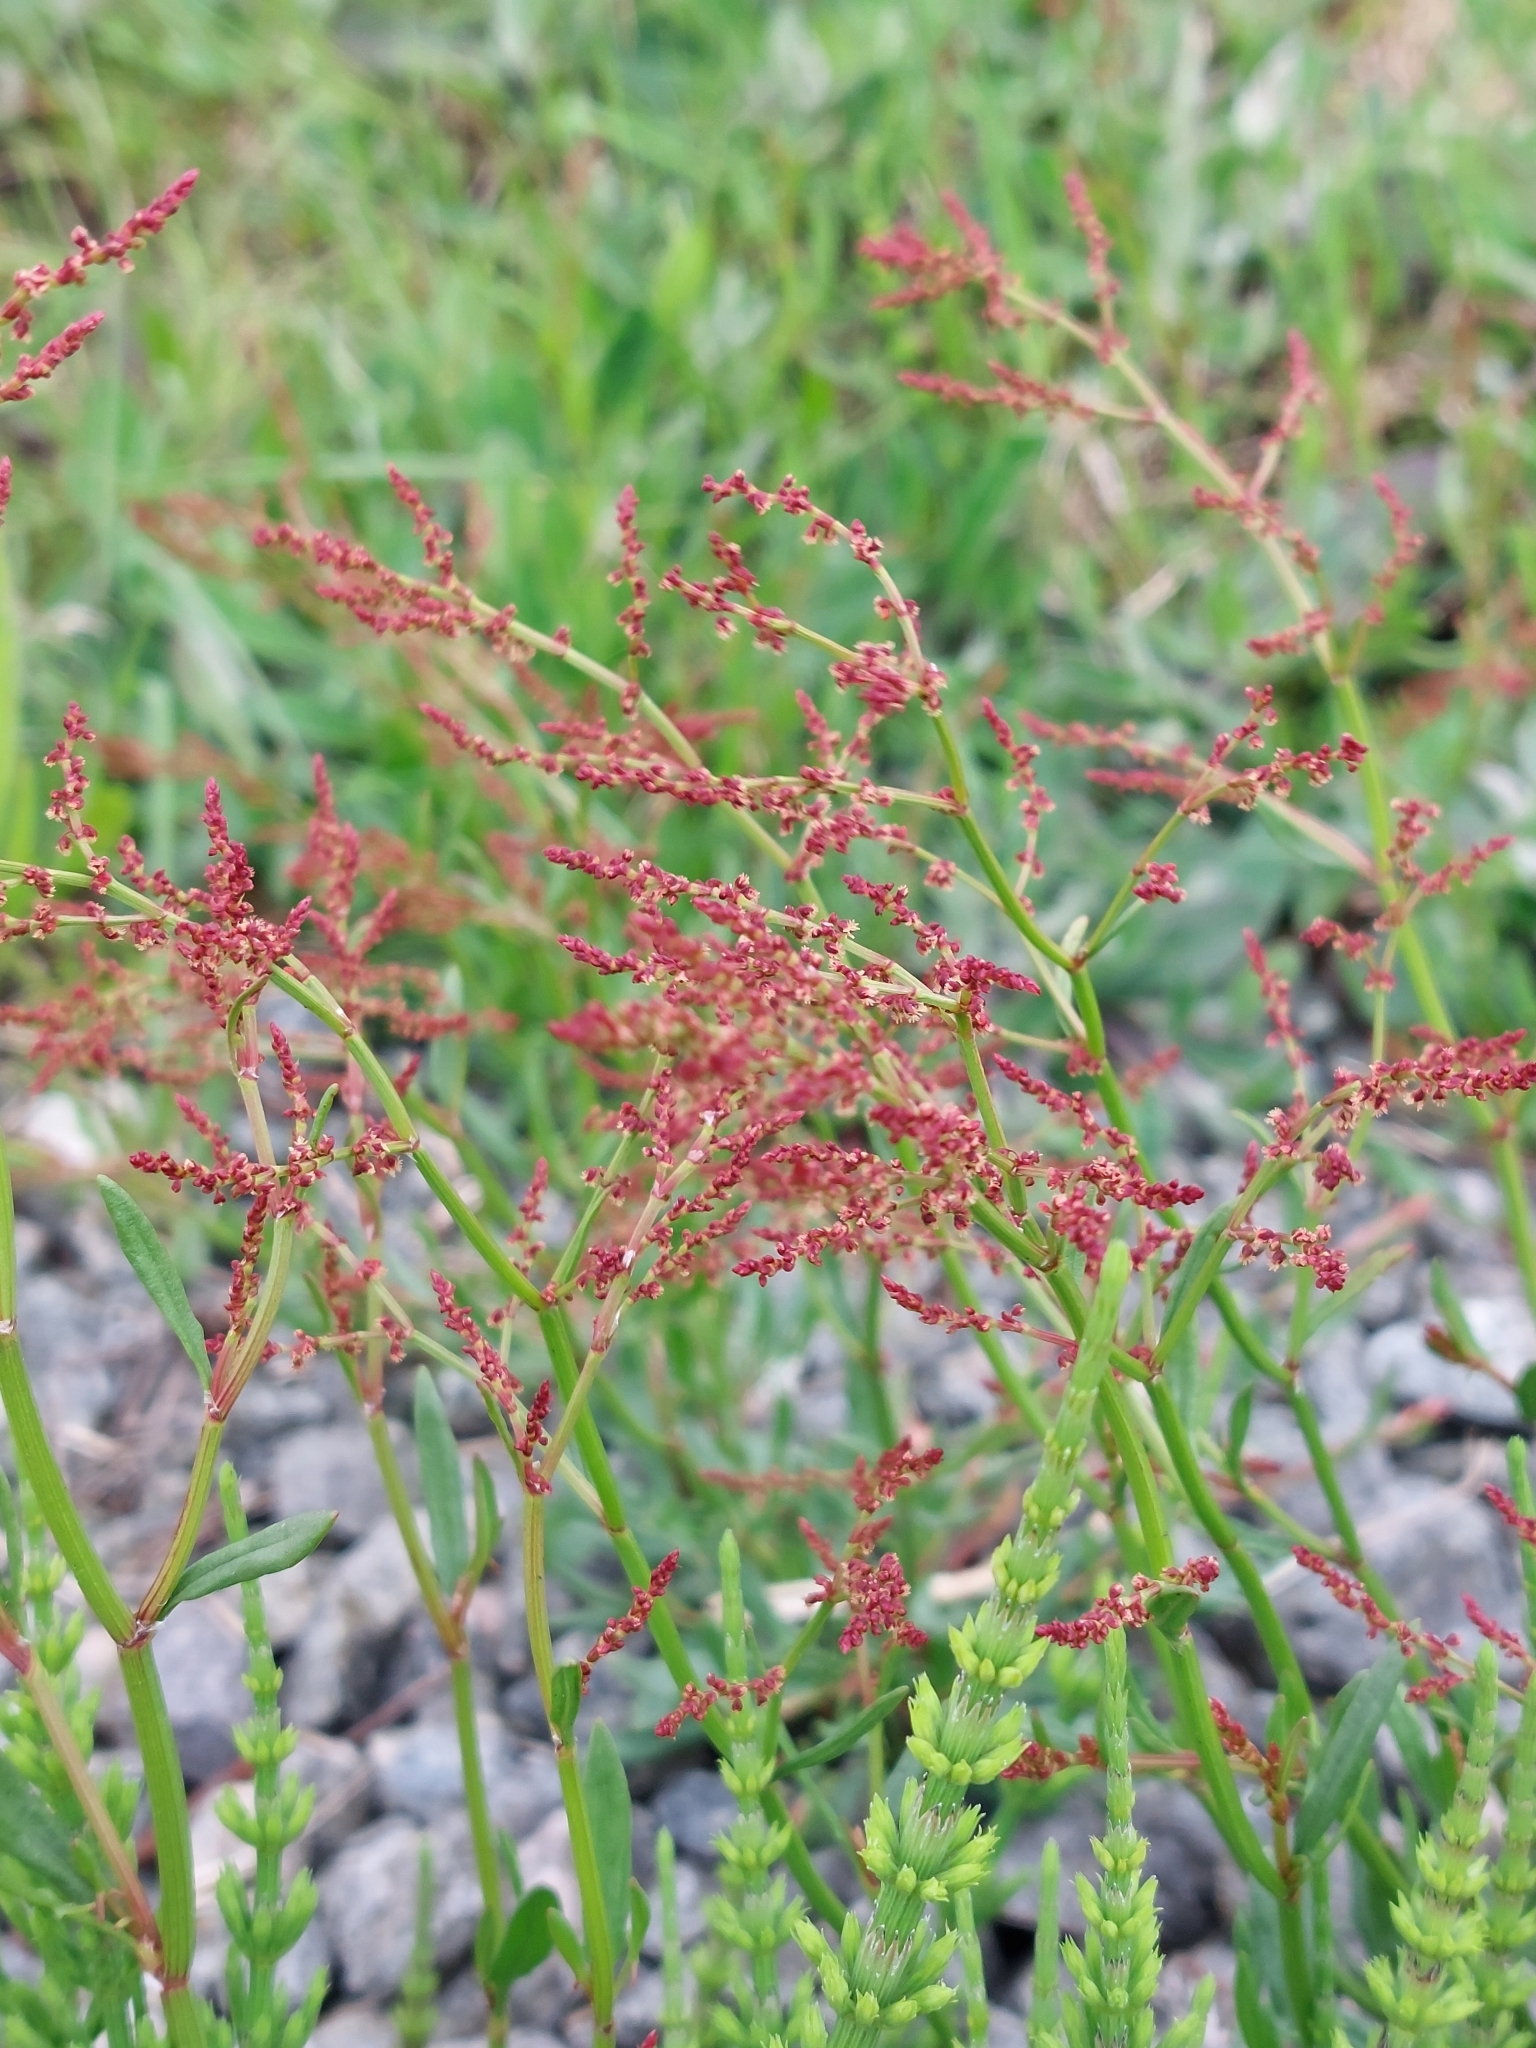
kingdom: Plantae
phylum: Tracheophyta
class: Magnoliopsida
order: Caryophyllales
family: Polygonaceae
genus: Rumex
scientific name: Rumex acetosella
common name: Common sheep sorrel
